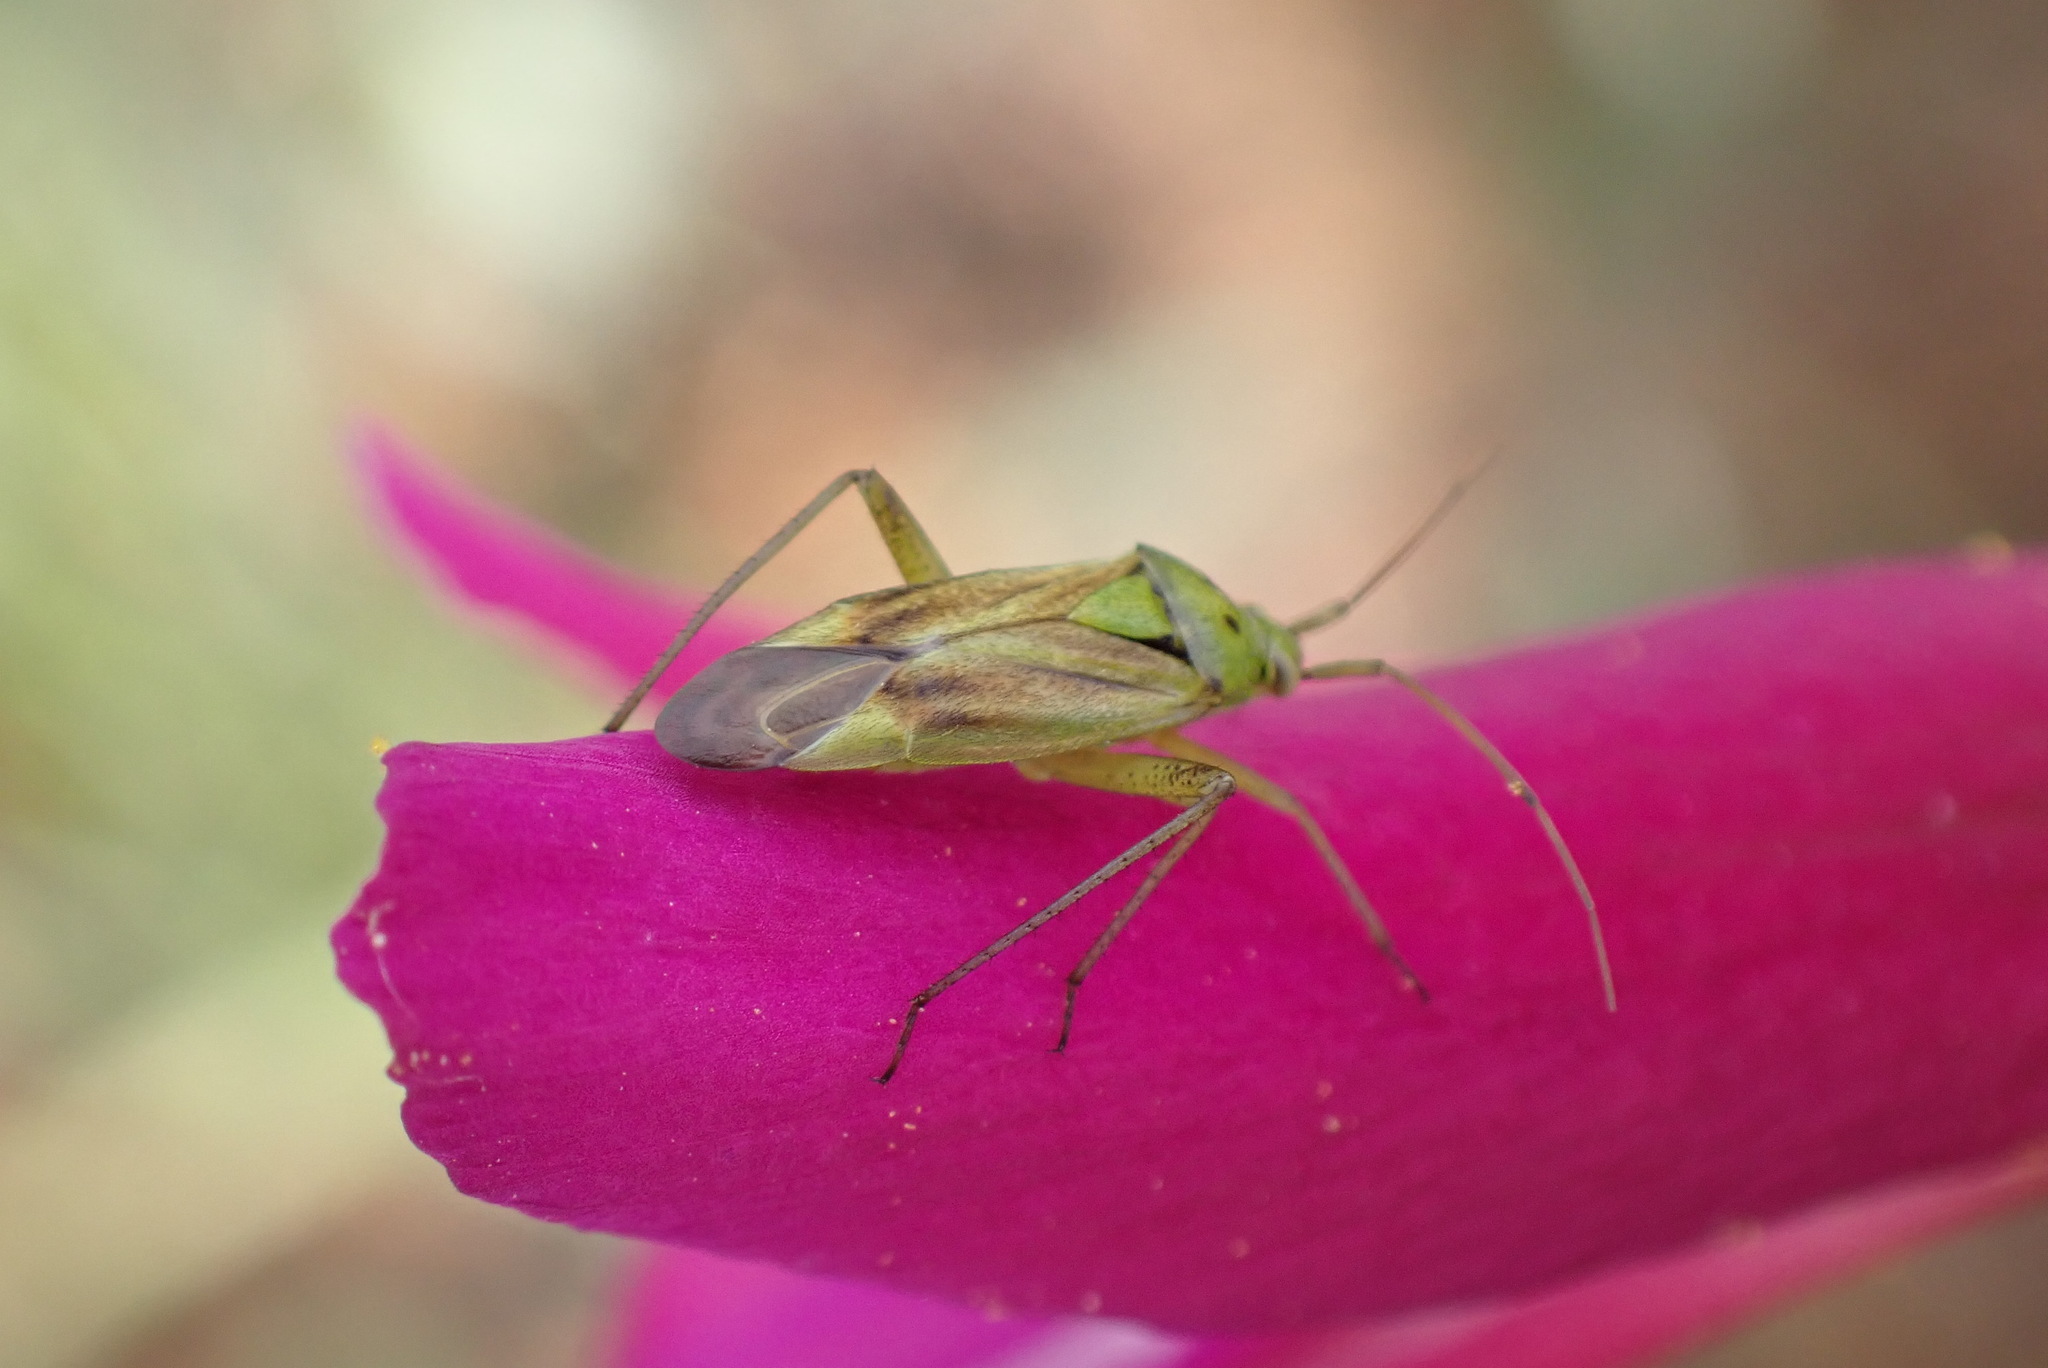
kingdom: Animalia
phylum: Arthropoda
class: Insecta
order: Hemiptera
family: Miridae
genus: Closterotomus
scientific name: Closterotomus norvegicus
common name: Plant bug
